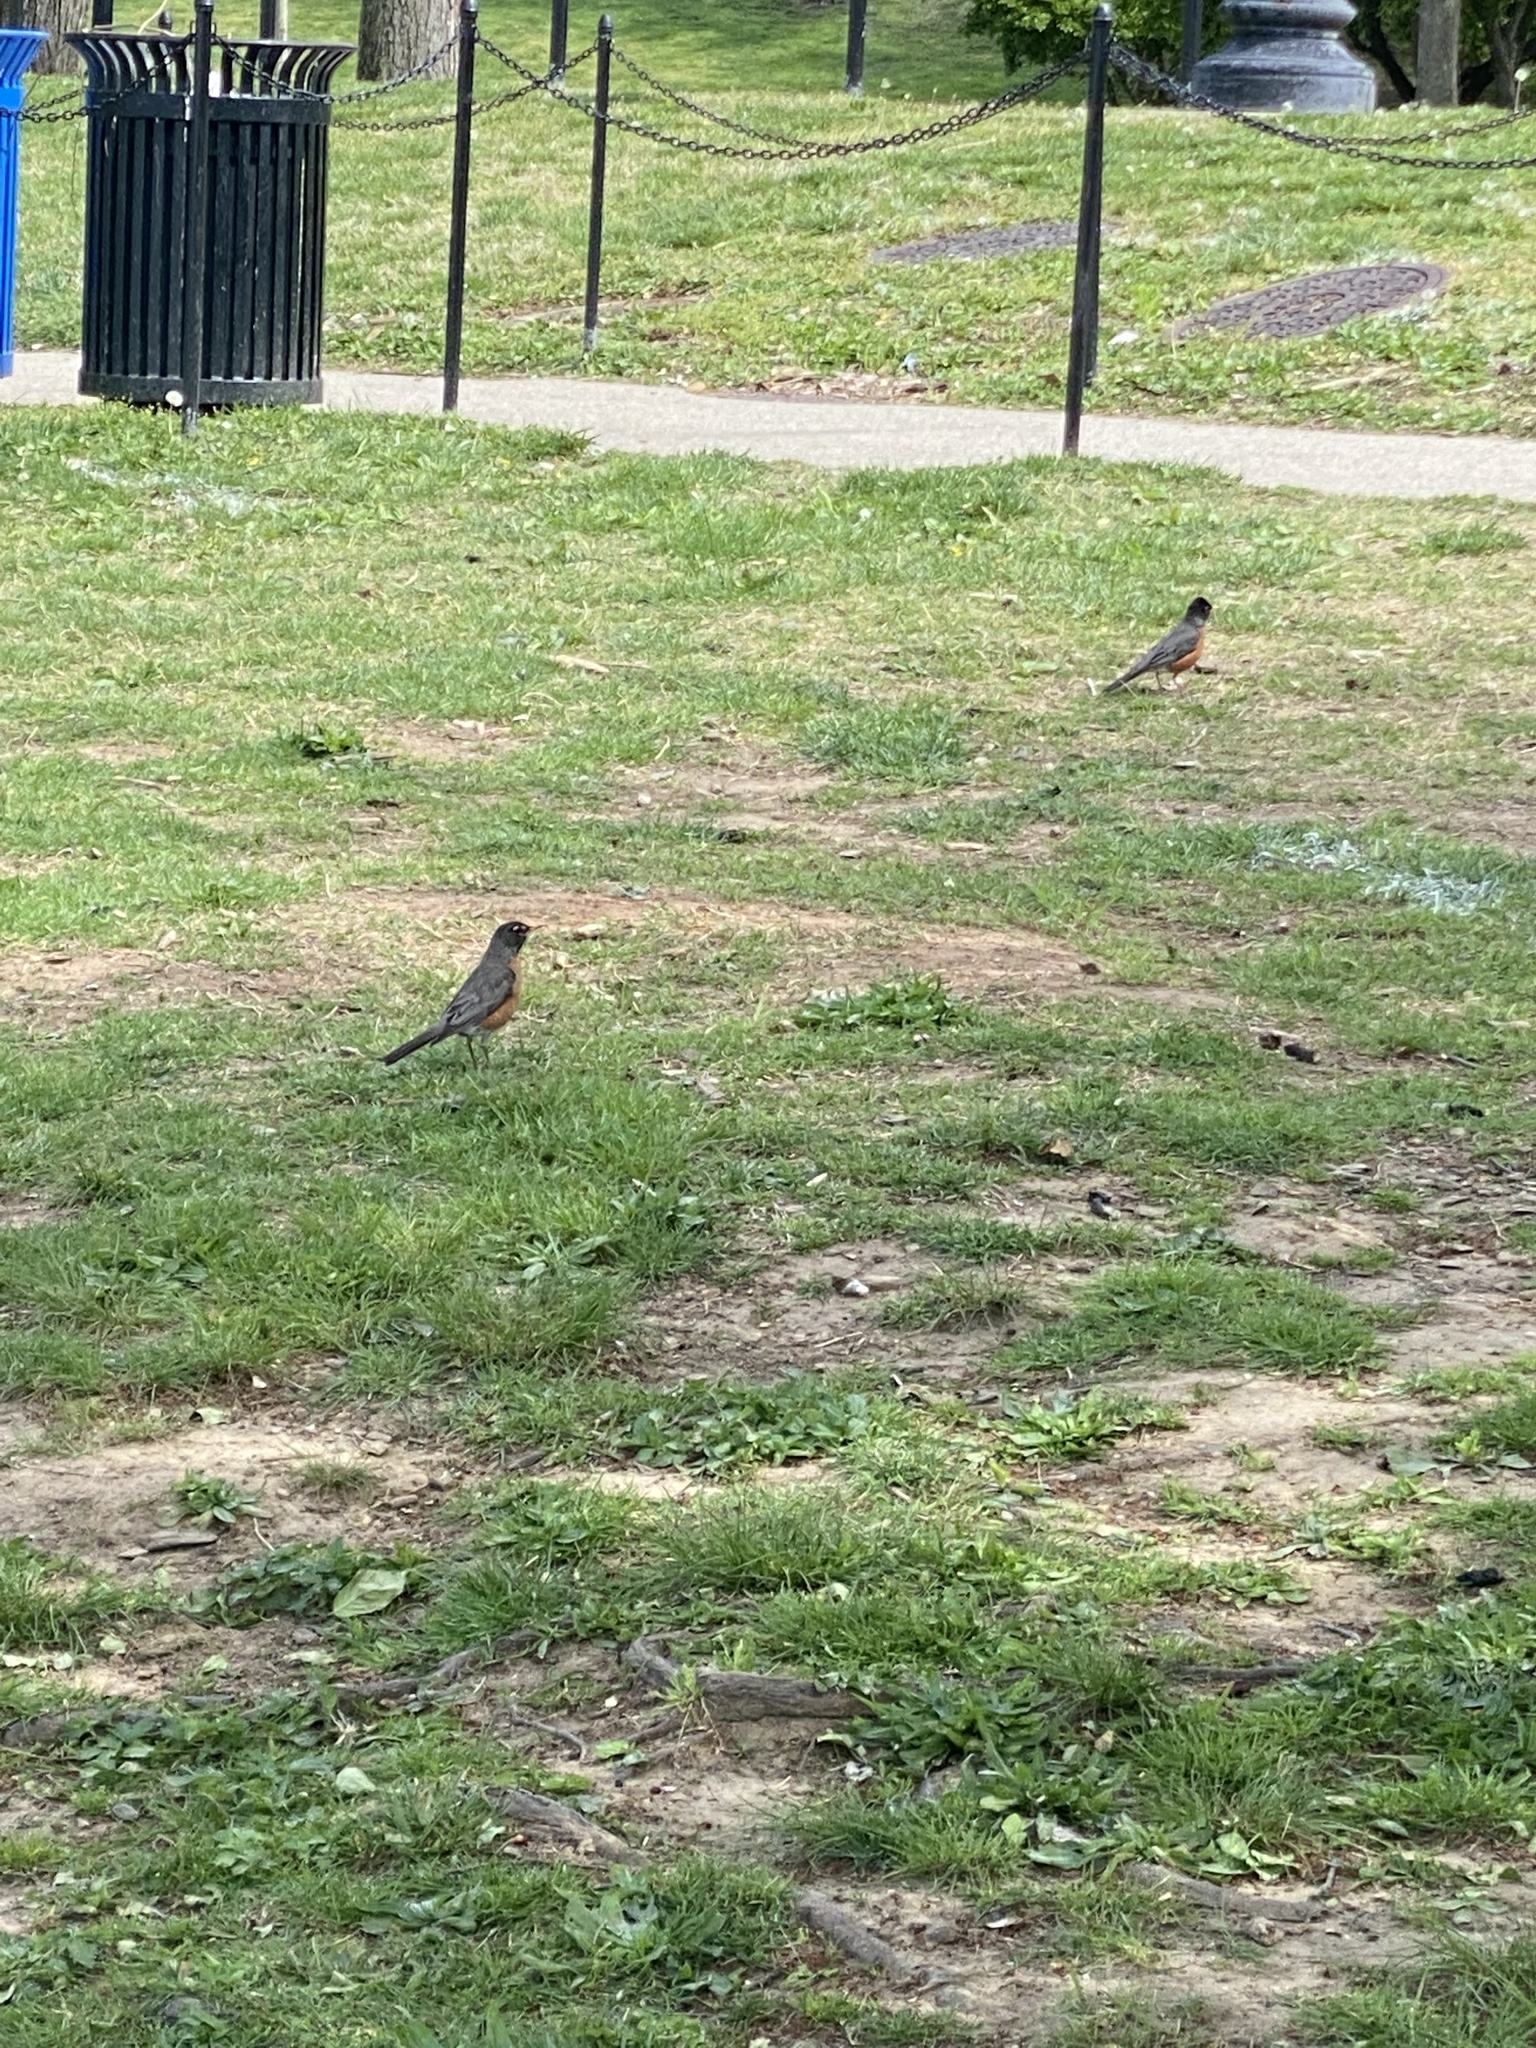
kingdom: Animalia
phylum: Chordata
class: Aves
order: Passeriformes
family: Turdidae
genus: Turdus
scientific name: Turdus migratorius
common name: American robin
